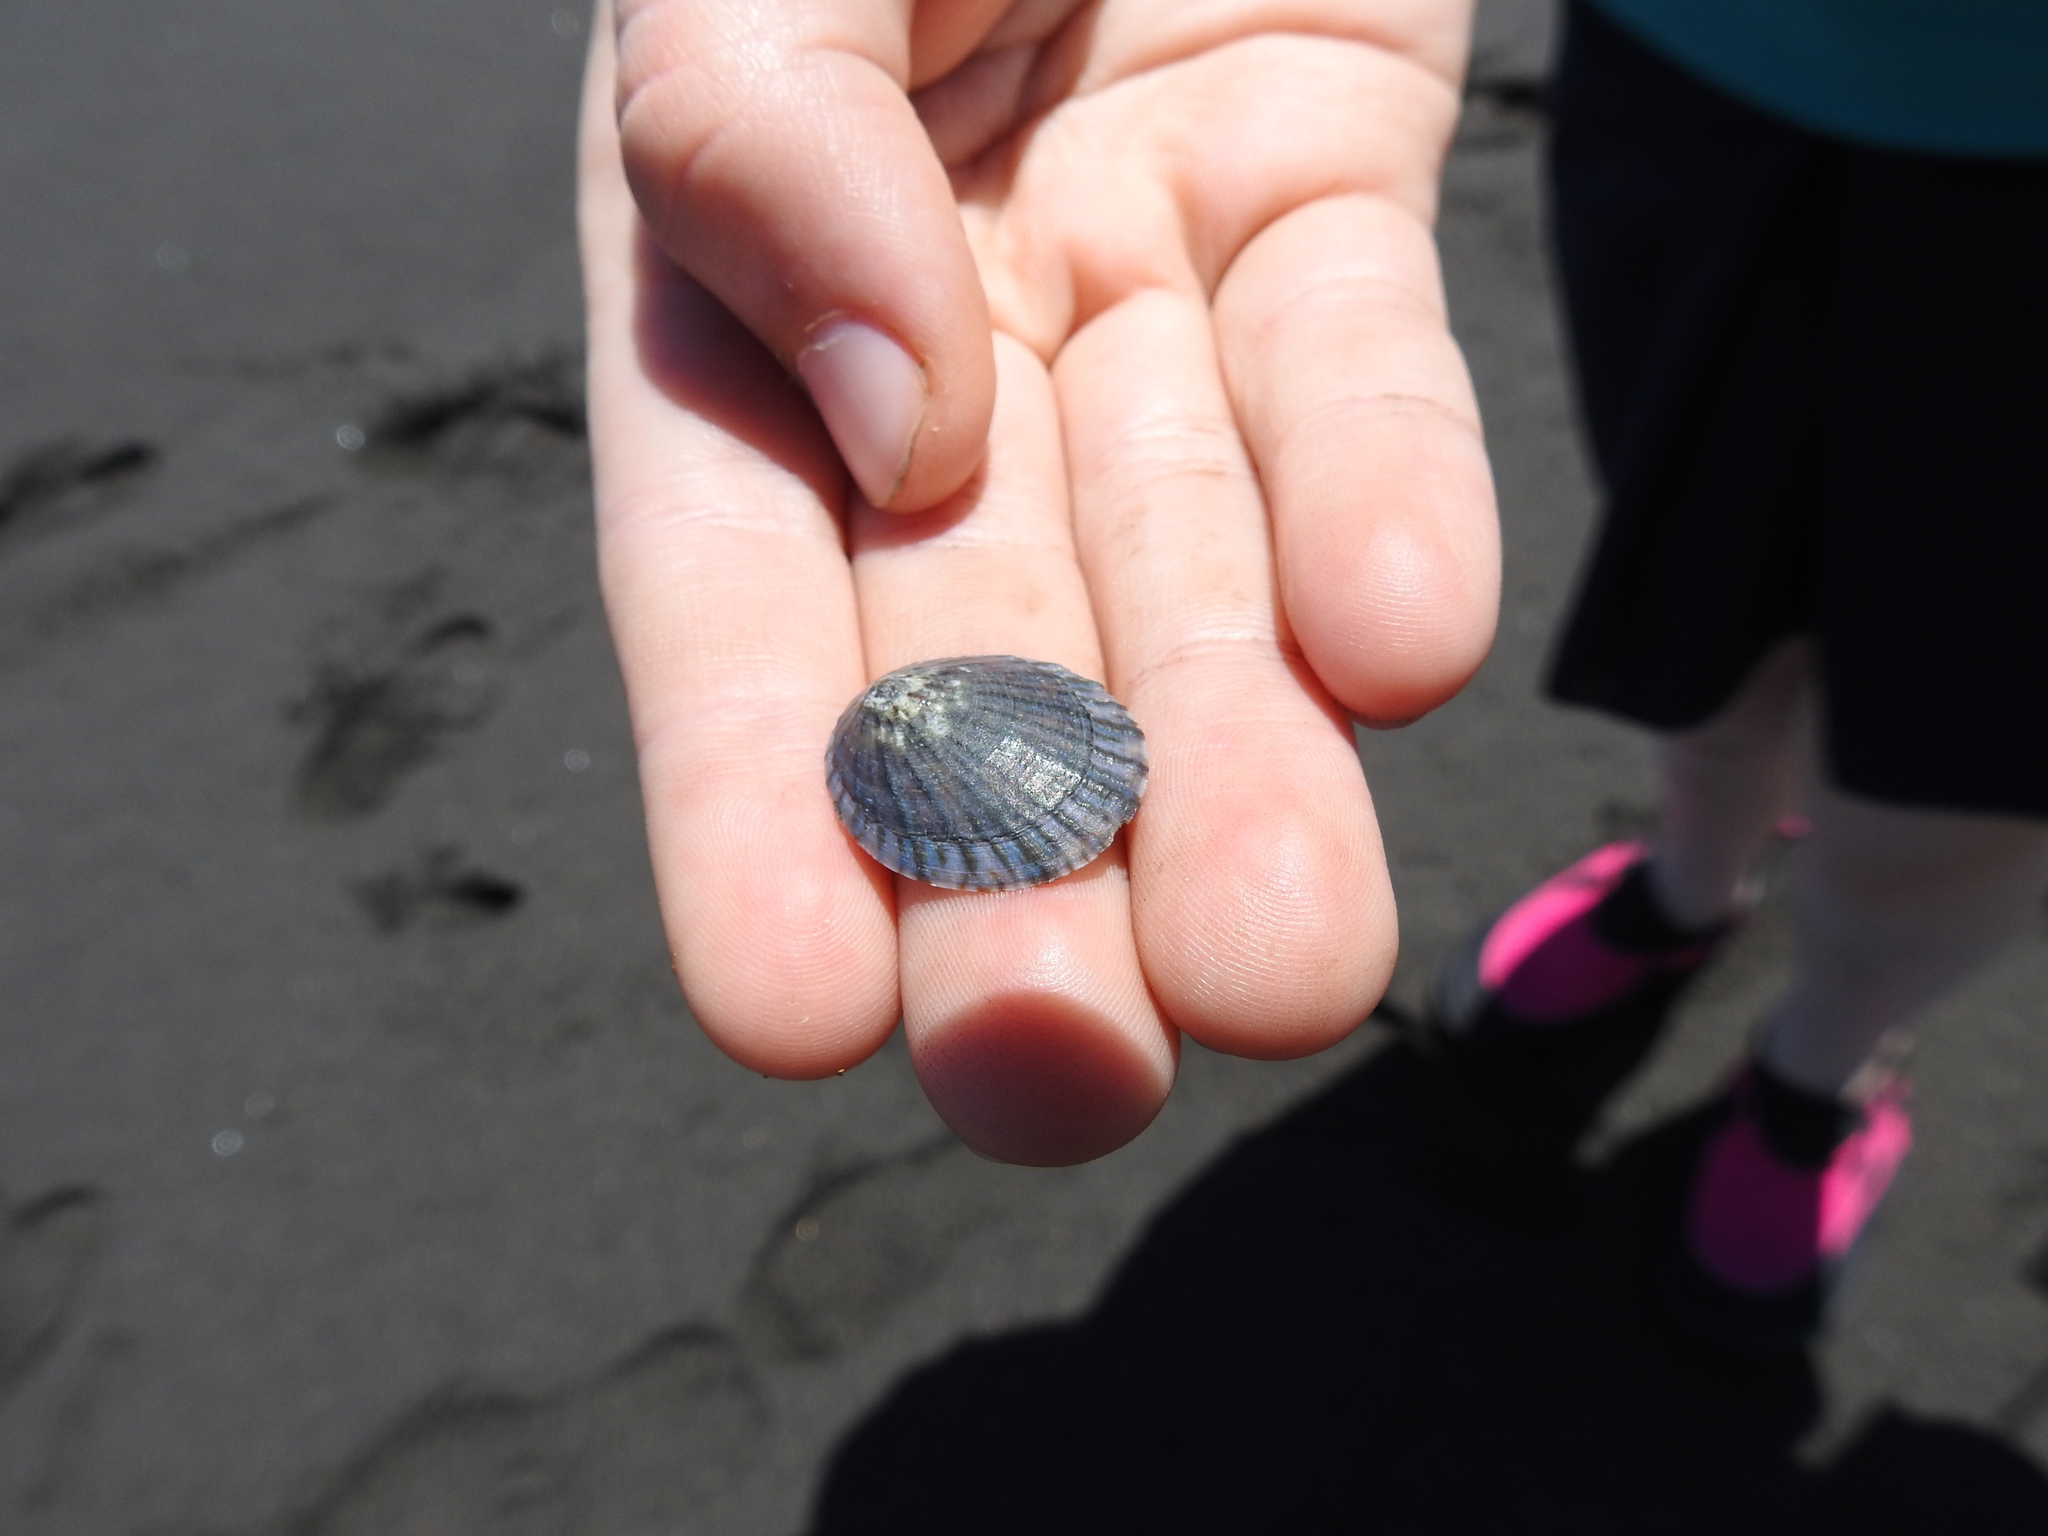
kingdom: Animalia
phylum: Mollusca
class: Gastropoda
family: Nacellidae
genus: Cellana
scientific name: Cellana radians
